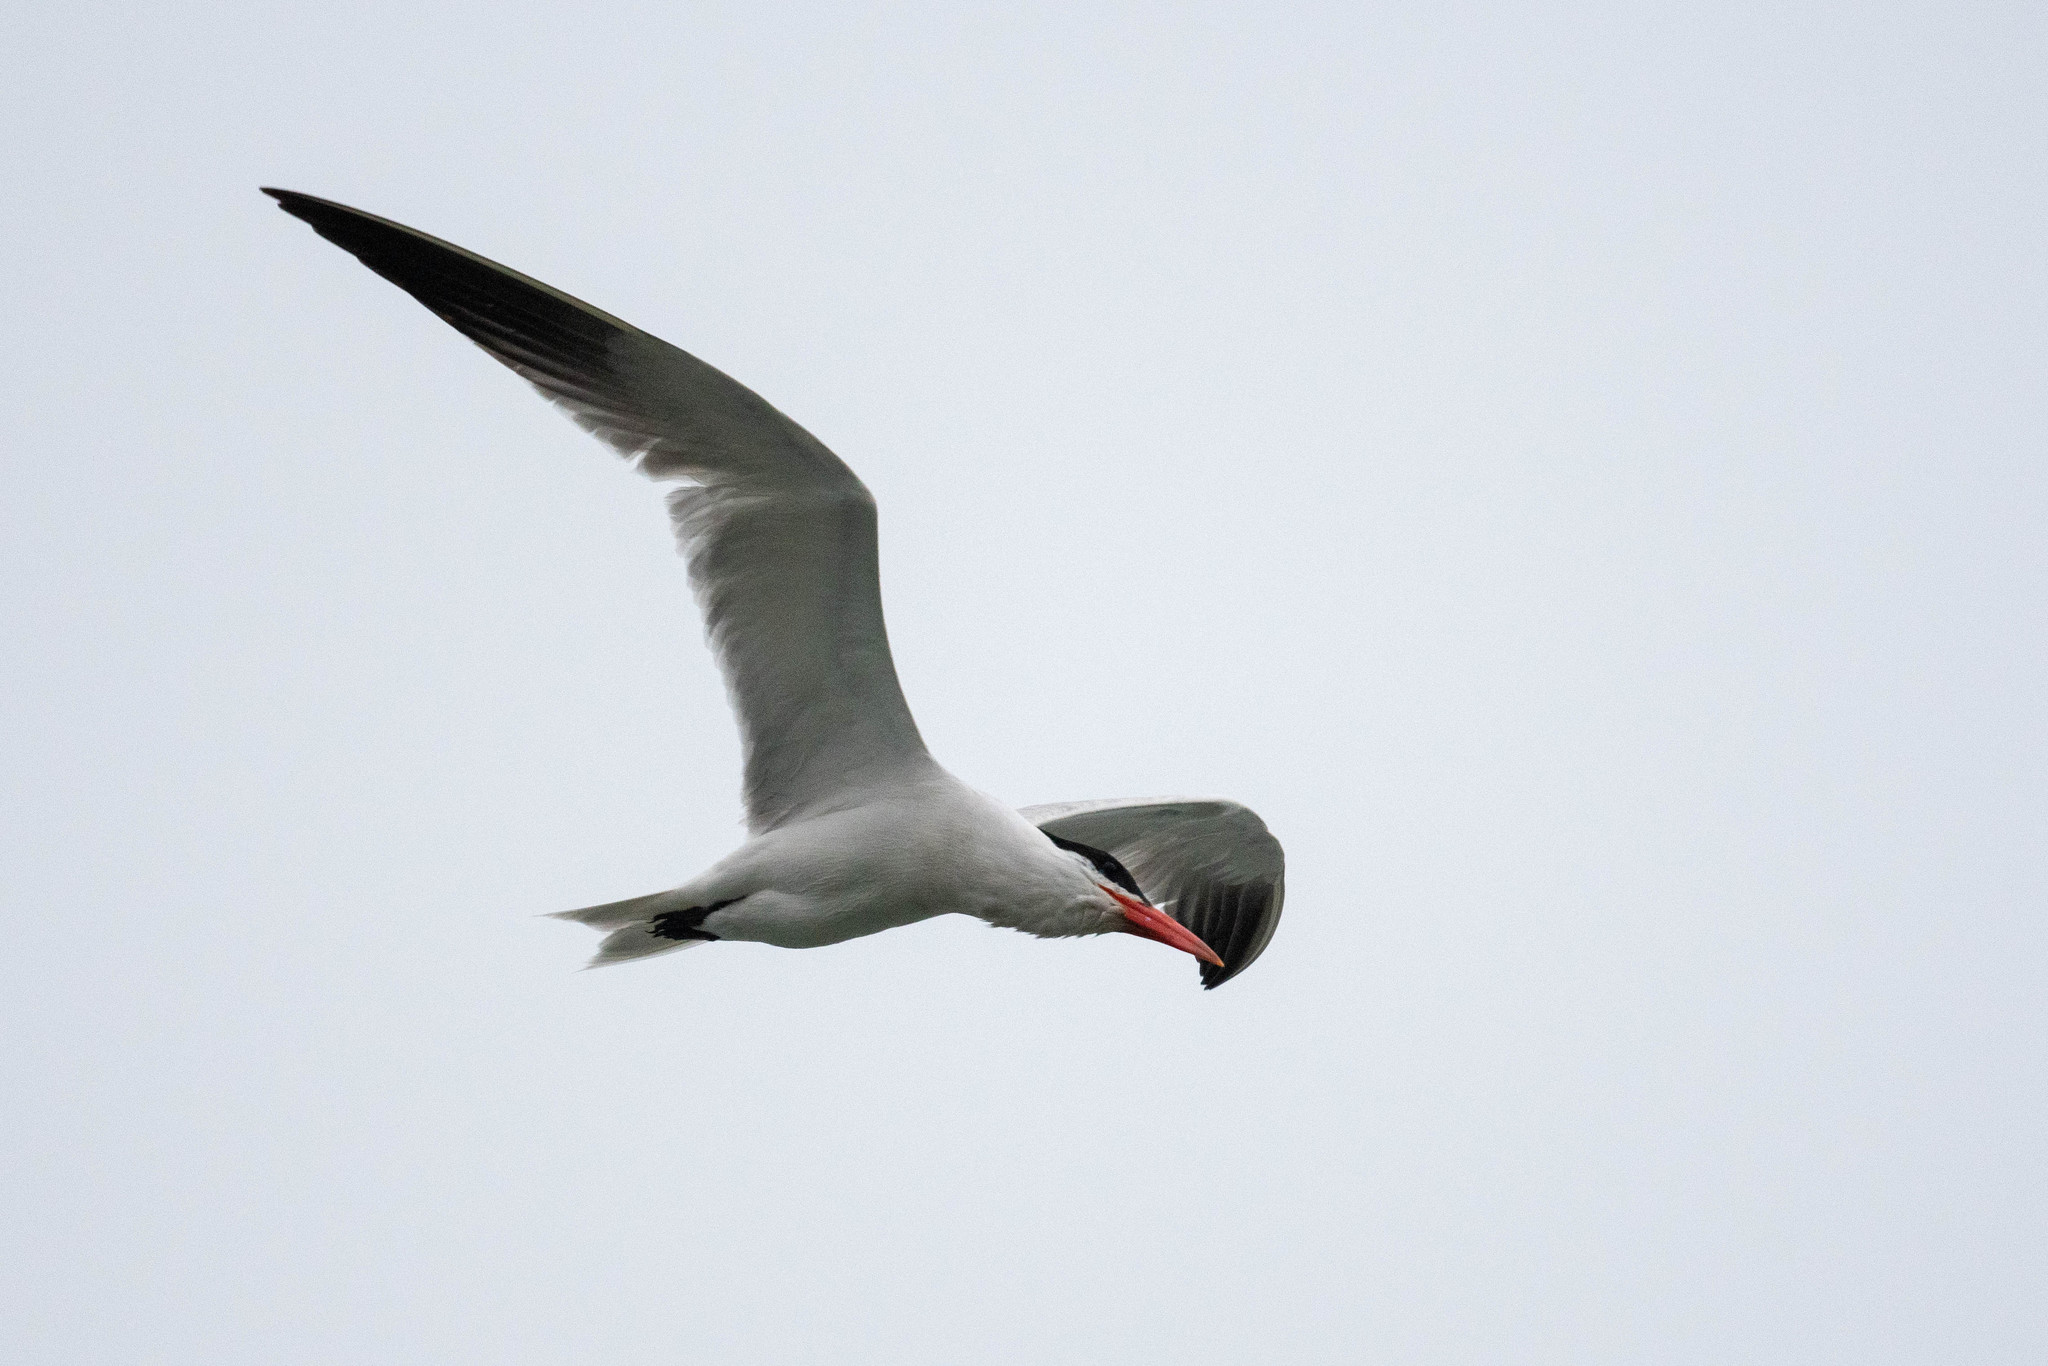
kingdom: Animalia
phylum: Chordata
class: Aves
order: Charadriiformes
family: Laridae
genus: Hydroprogne
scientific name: Hydroprogne caspia
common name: Caspian tern
